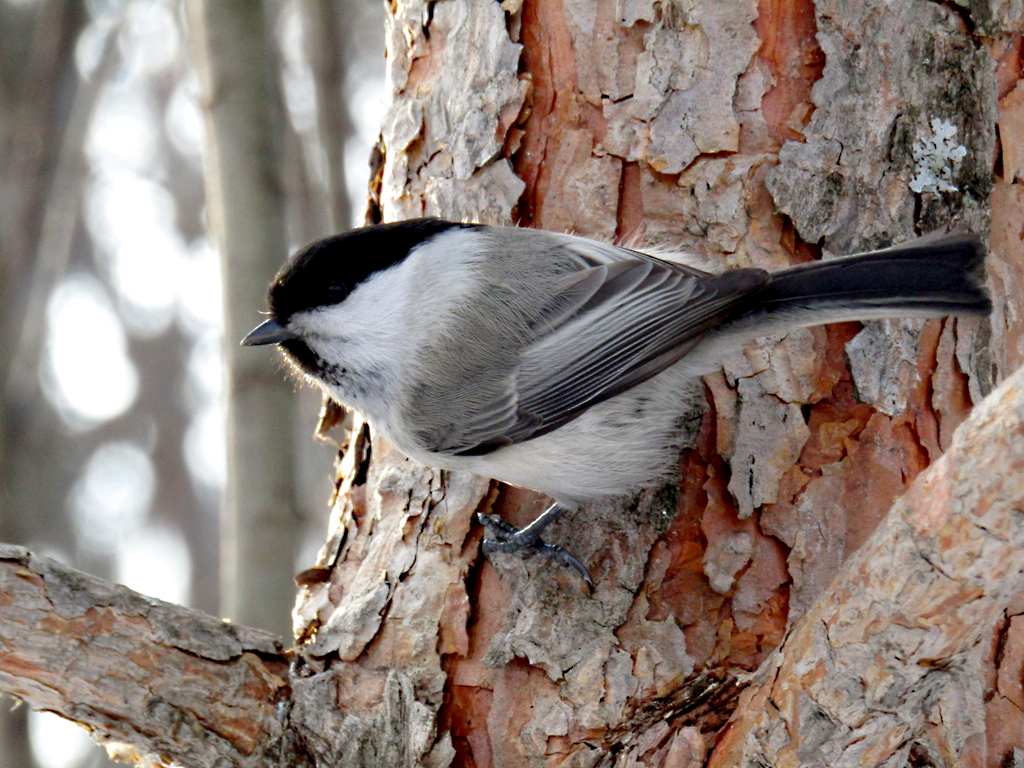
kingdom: Animalia
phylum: Chordata
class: Aves
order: Passeriformes
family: Paridae
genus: Poecile
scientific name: Poecile montanus
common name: Willow tit
